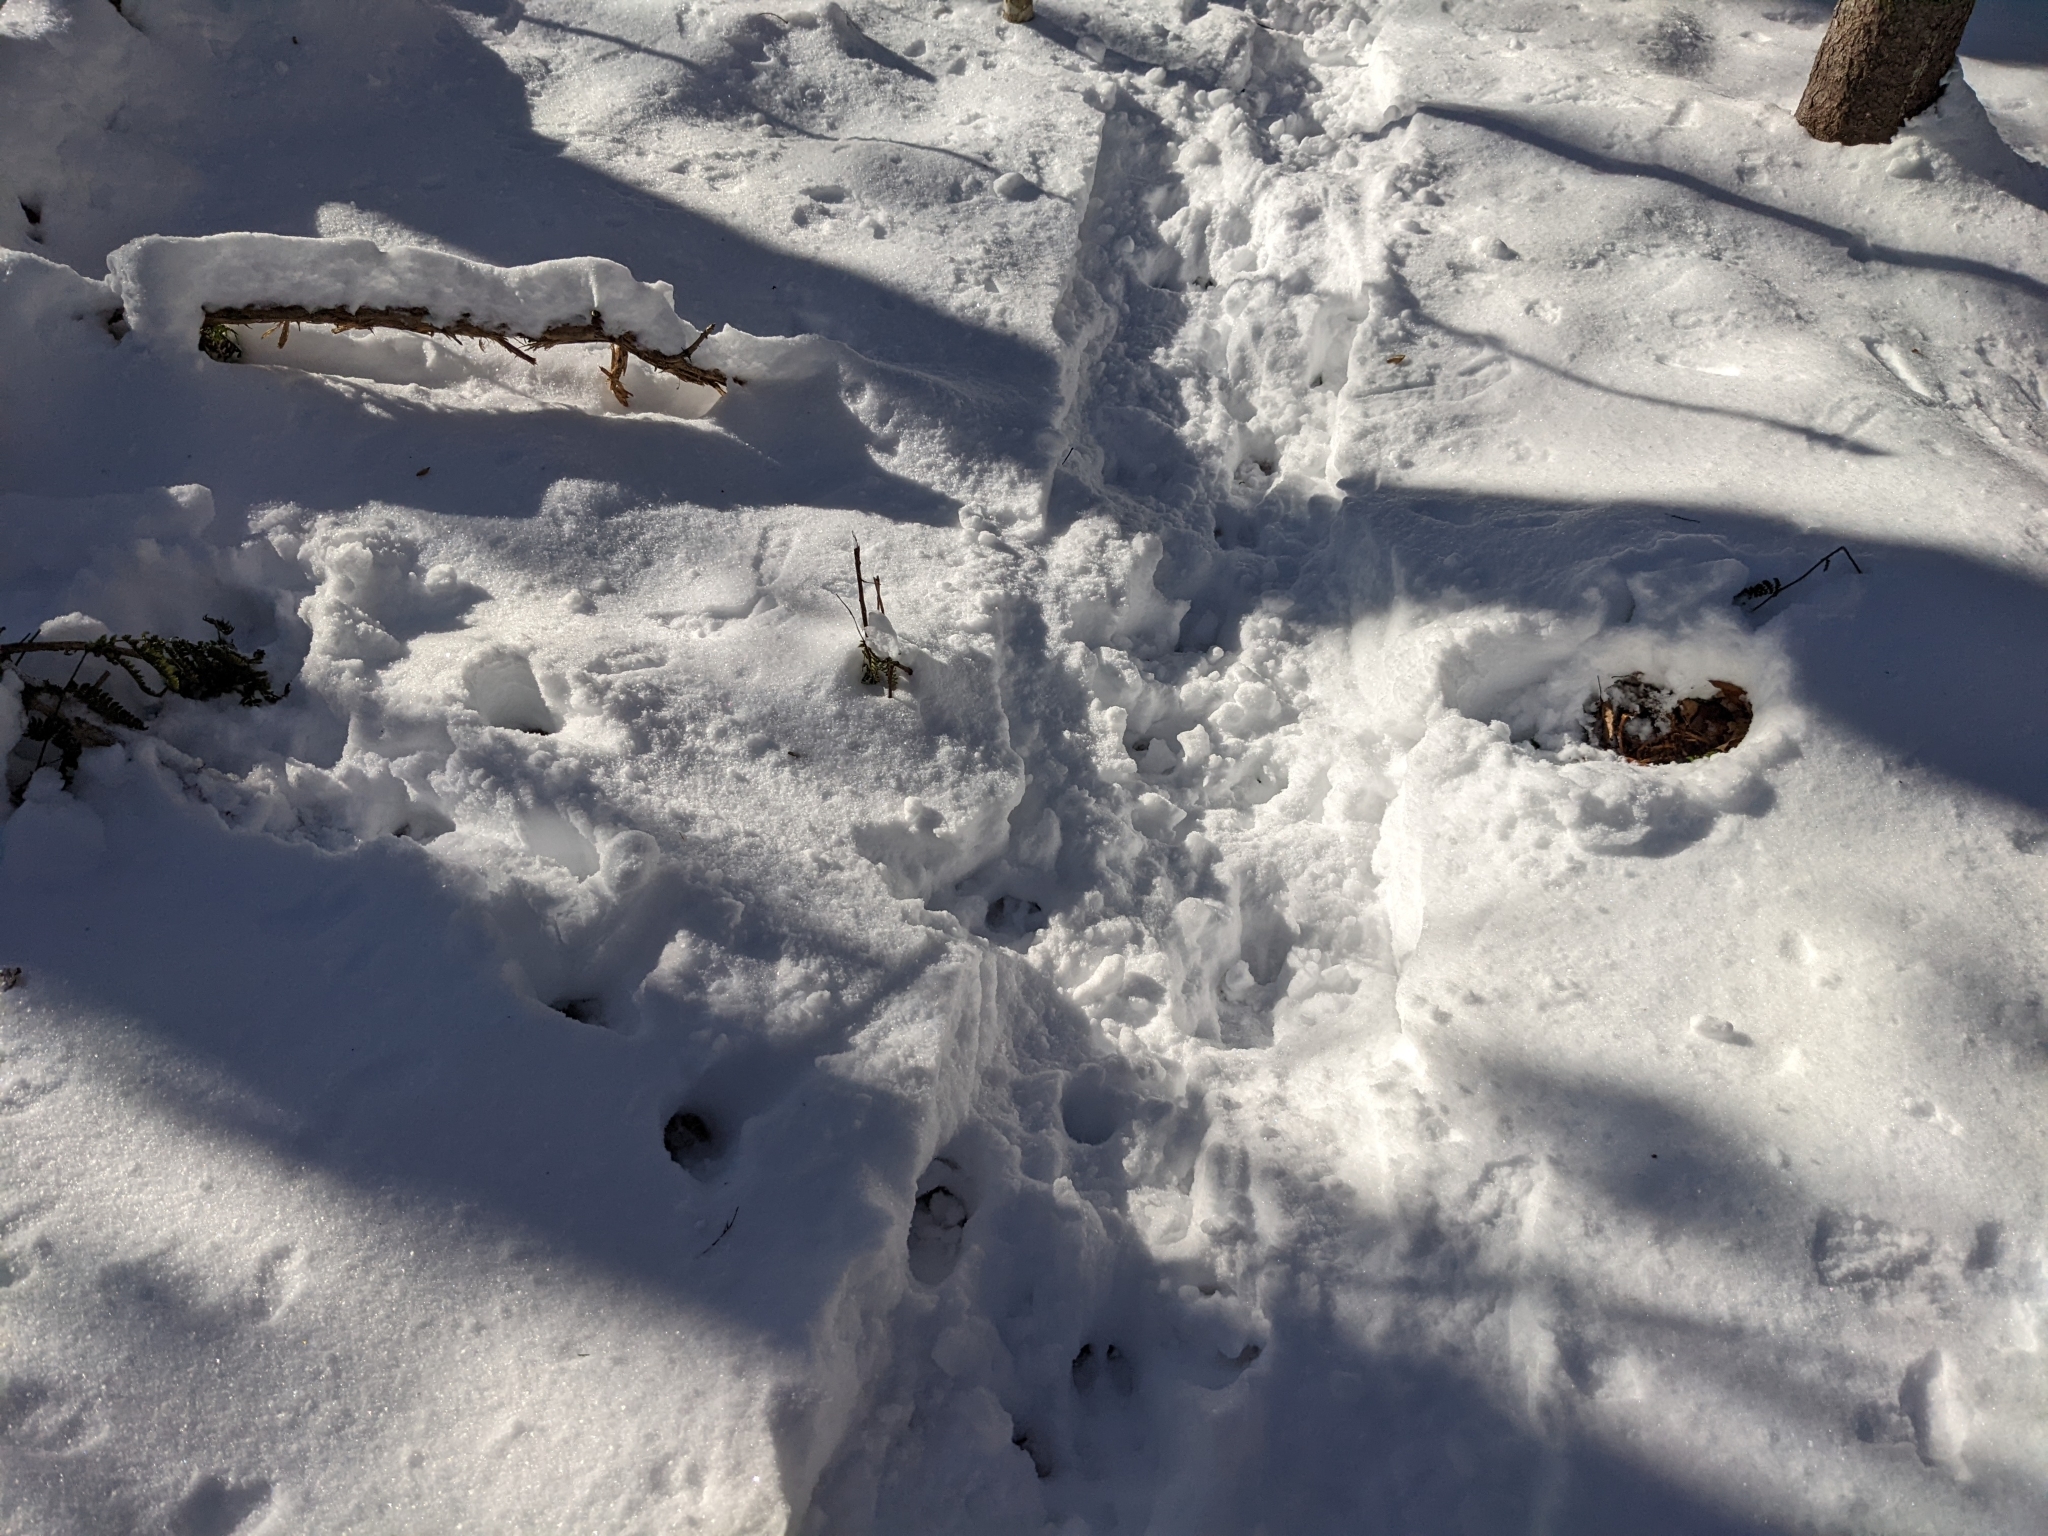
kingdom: Animalia
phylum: Chordata
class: Mammalia
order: Artiodactyla
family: Cervidae
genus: Odocoileus
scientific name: Odocoileus virginianus
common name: White-tailed deer
